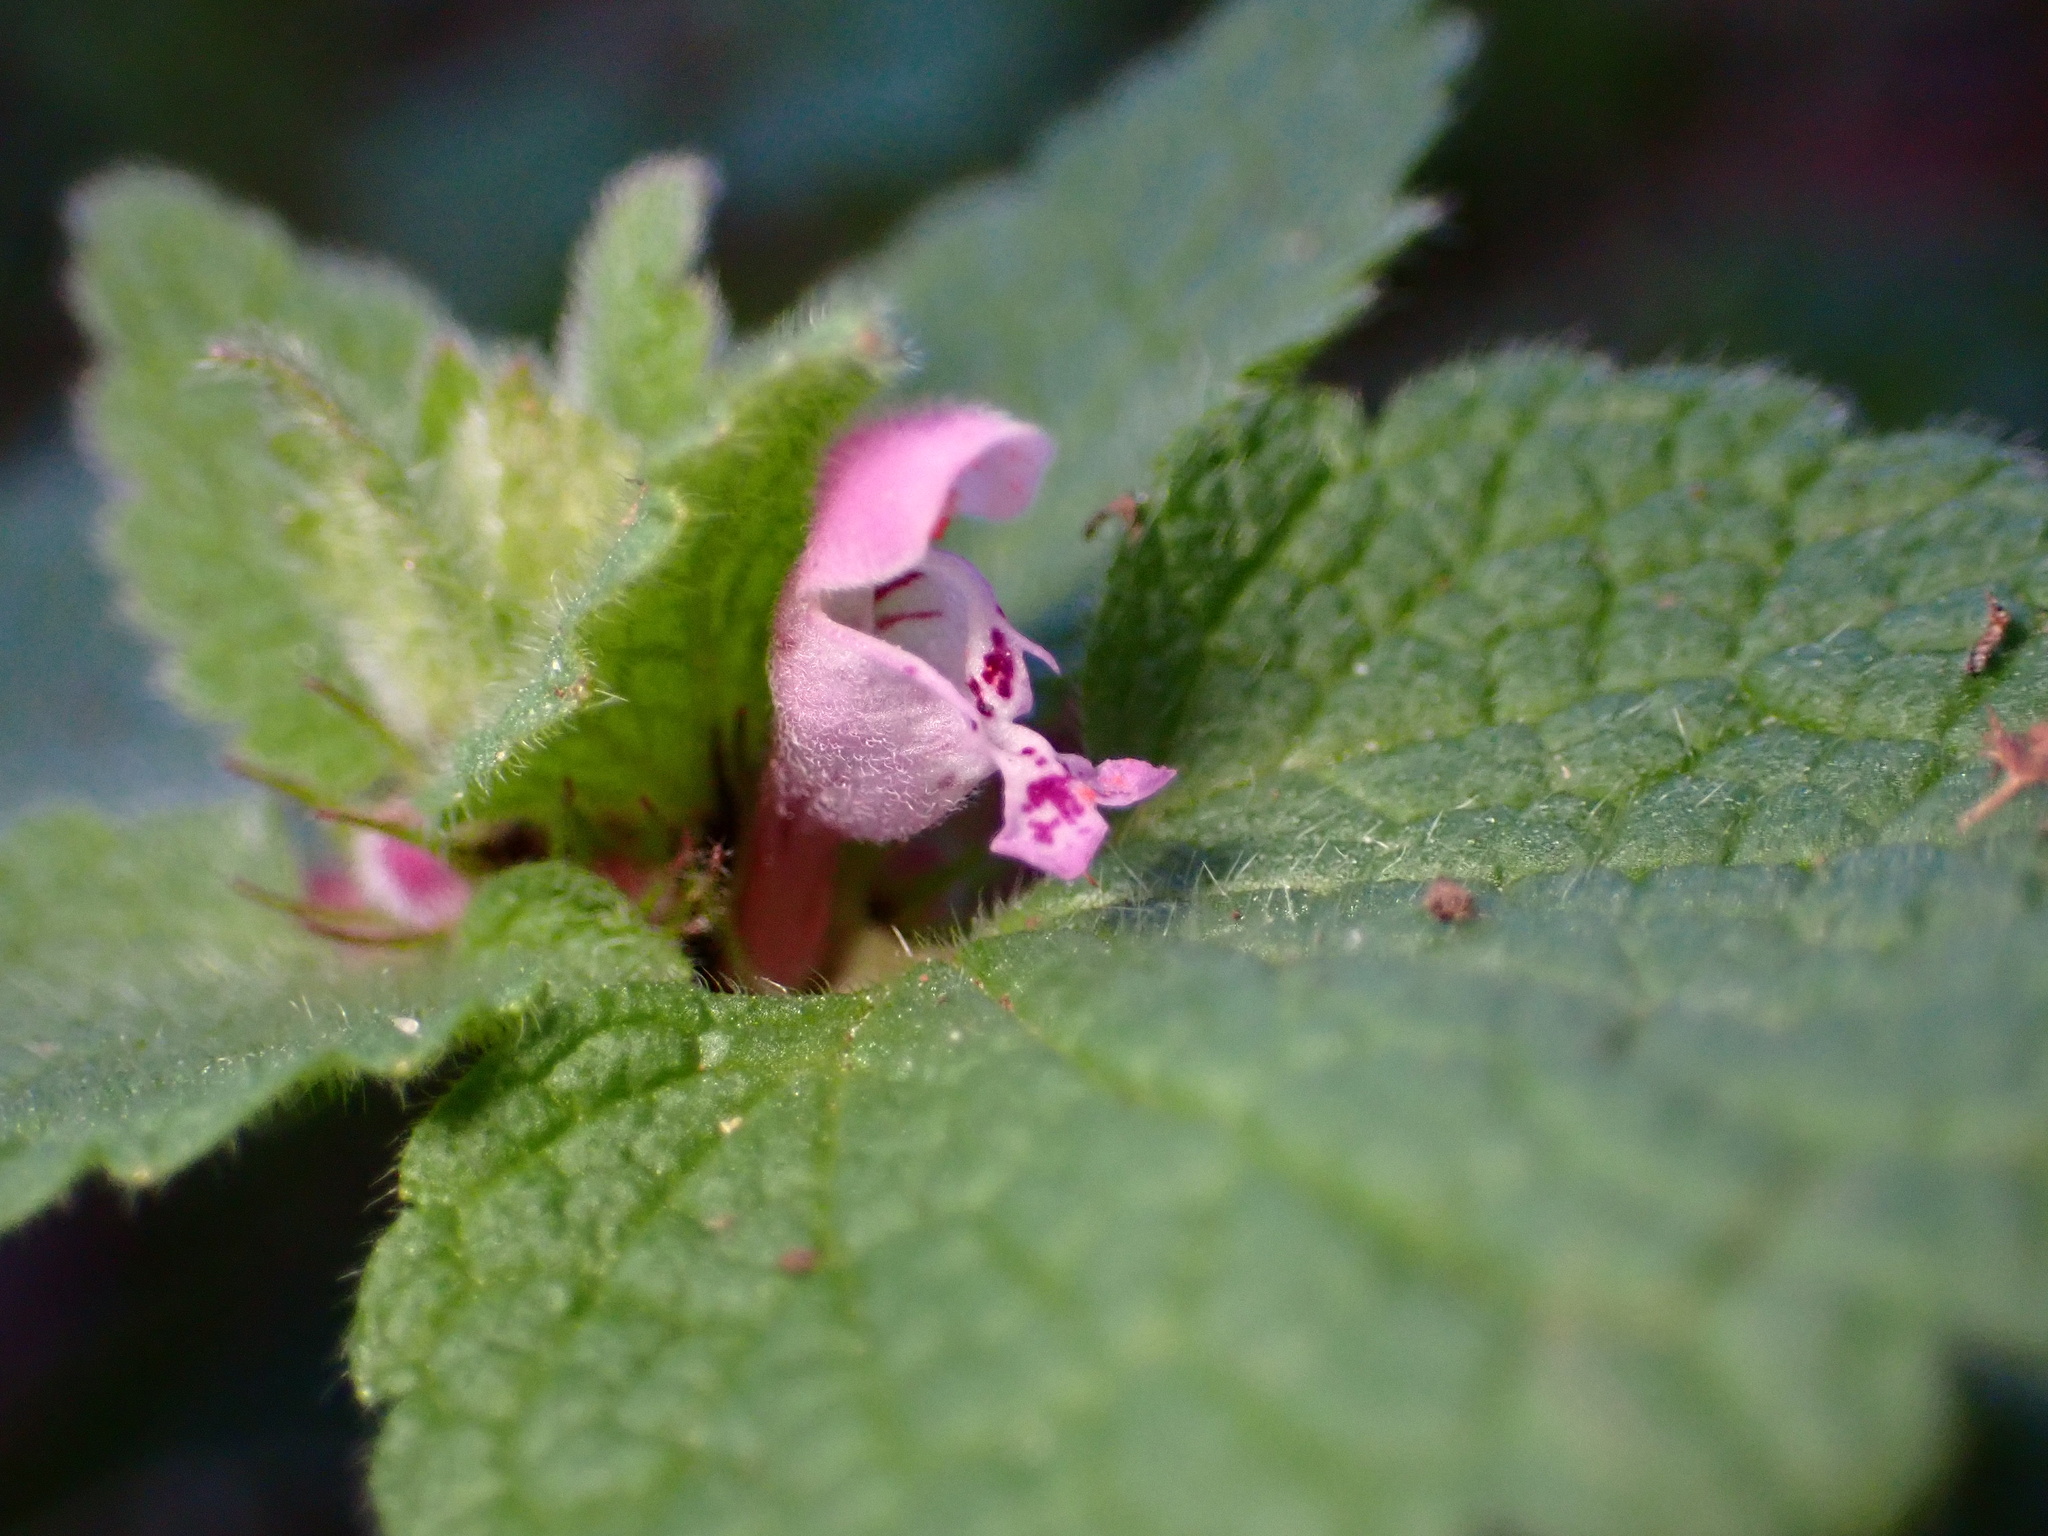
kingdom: Plantae
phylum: Tracheophyta
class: Magnoliopsida
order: Lamiales
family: Lamiaceae
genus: Lamium
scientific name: Lamium purpureum
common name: Red dead-nettle
